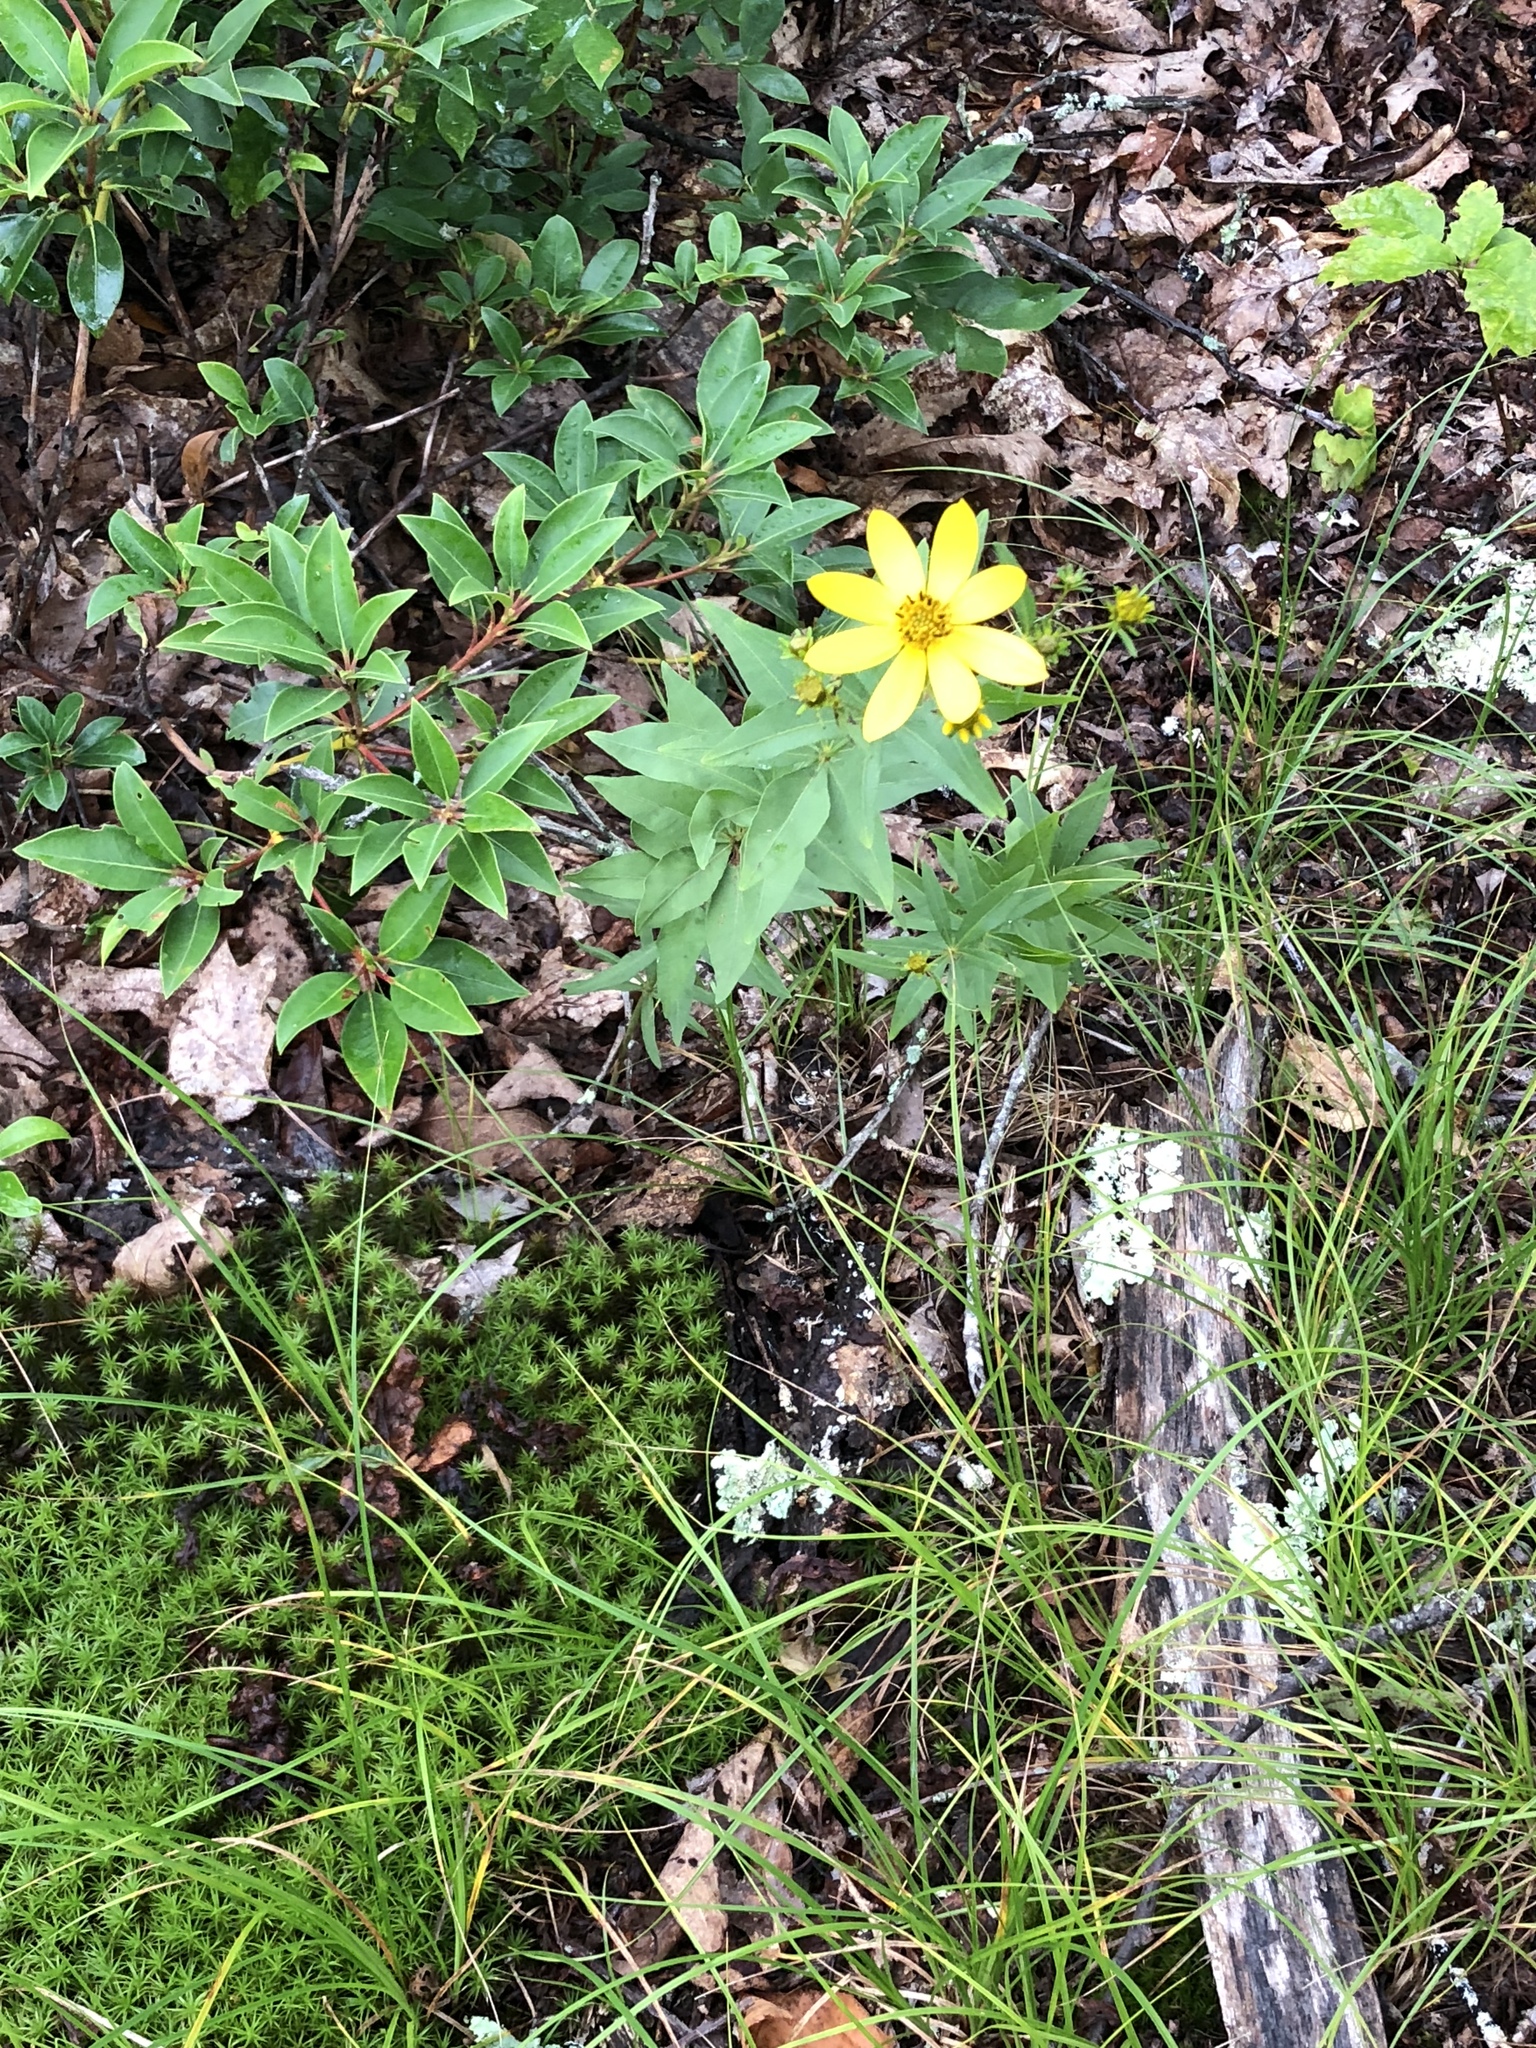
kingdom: Plantae
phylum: Tracheophyta
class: Magnoliopsida
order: Asterales
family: Asteraceae
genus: Coreopsis
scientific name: Coreopsis major
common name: Forest tickseed
